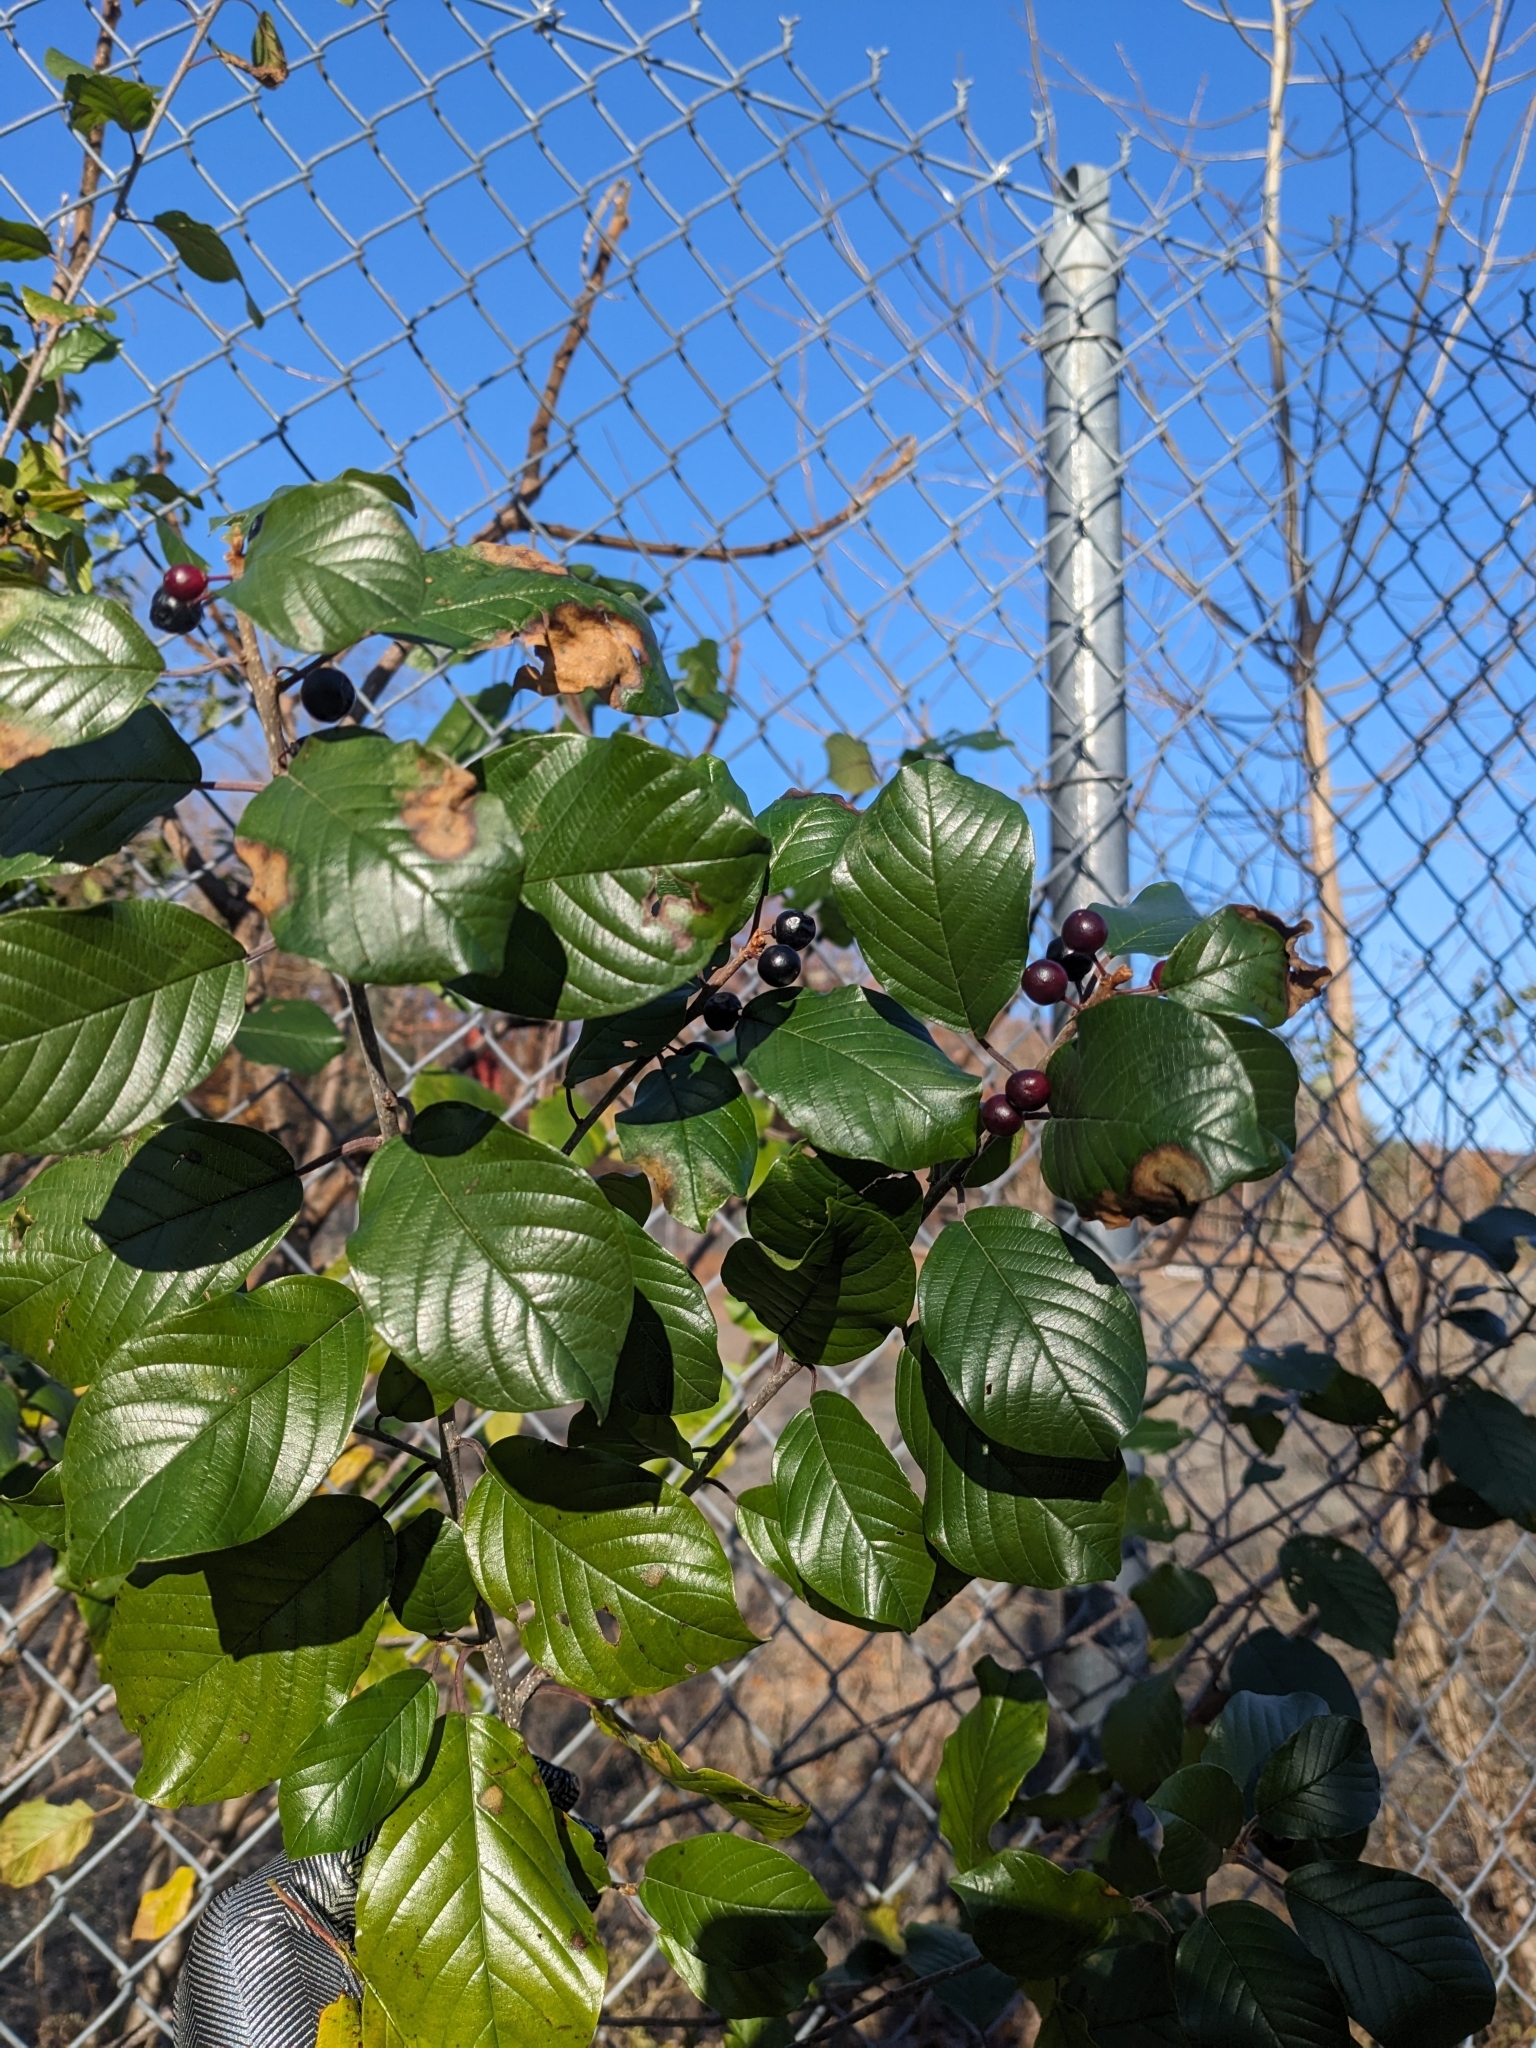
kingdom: Plantae
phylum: Tracheophyta
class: Magnoliopsida
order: Rosales
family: Rhamnaceae
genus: Frangula
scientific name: Frangula alnus
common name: Alder buckthorn
